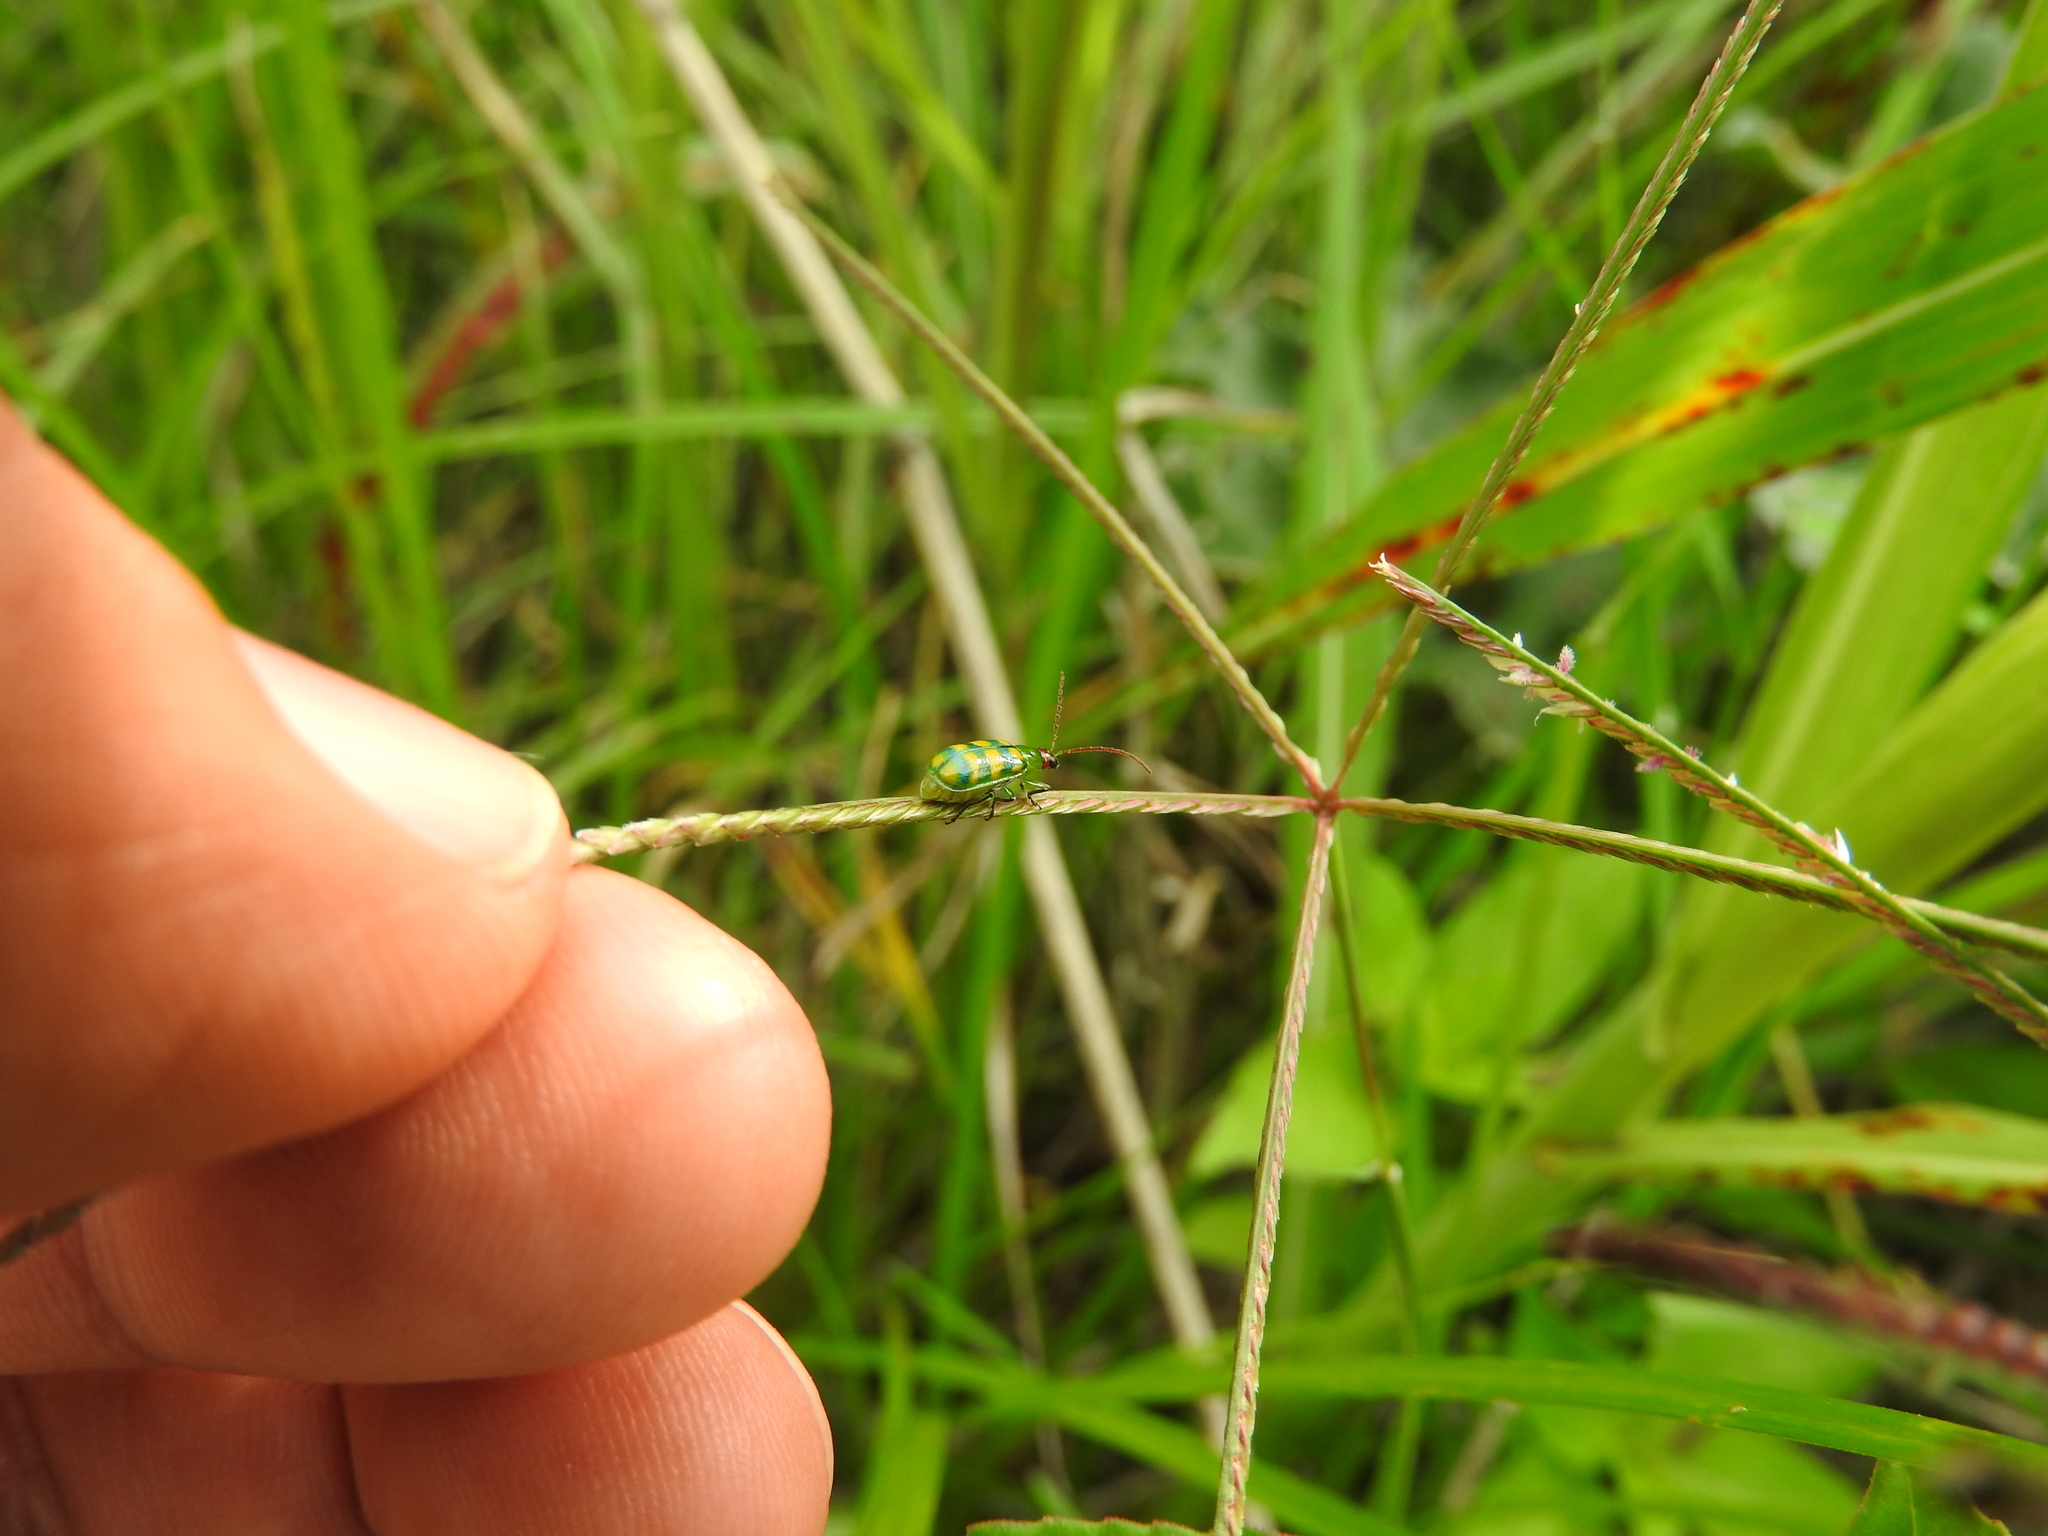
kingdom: Animalia
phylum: Arthropoda
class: Insecta
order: Coleoptera
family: Chrysomelidae
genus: Diabrotica
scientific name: Diabrotica balteata
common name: Leaf beetle
